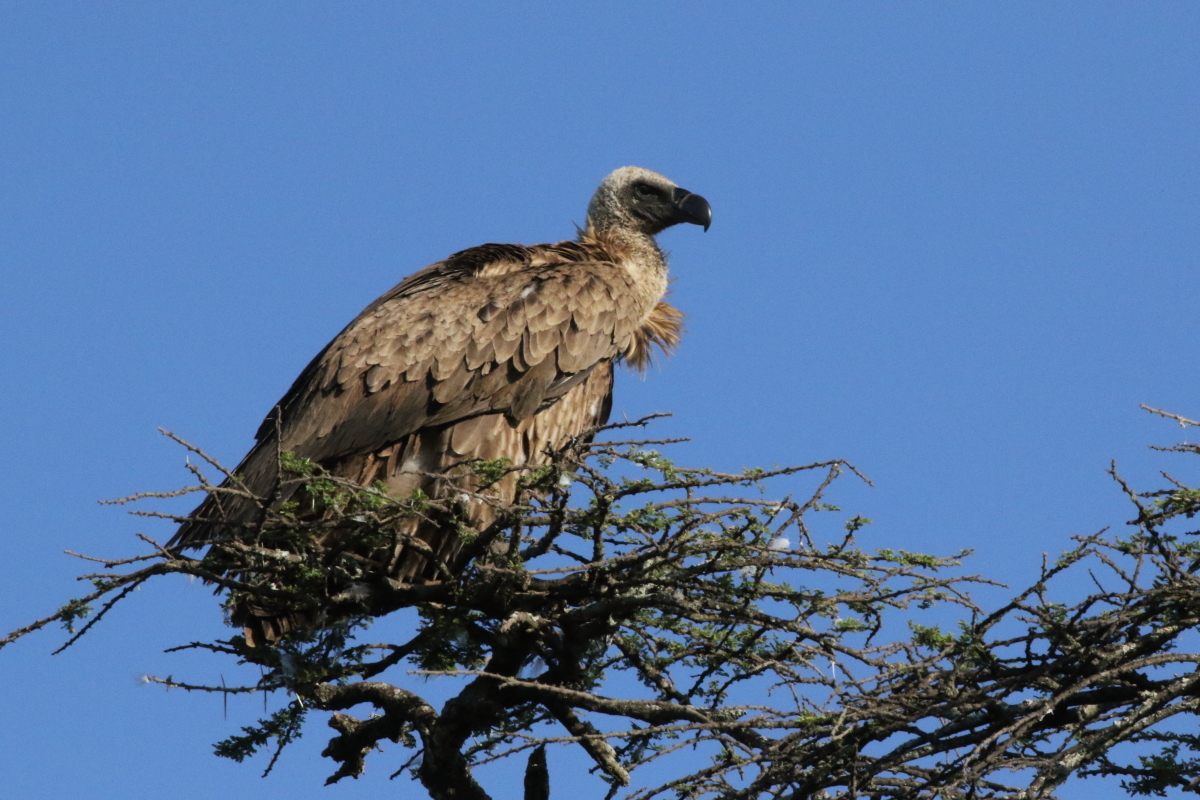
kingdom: Animalia
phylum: Chordata
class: Aves
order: Accipitriformes
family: Accipitridae
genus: Gyps
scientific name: Gyps africanus
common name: White-backed vulture
